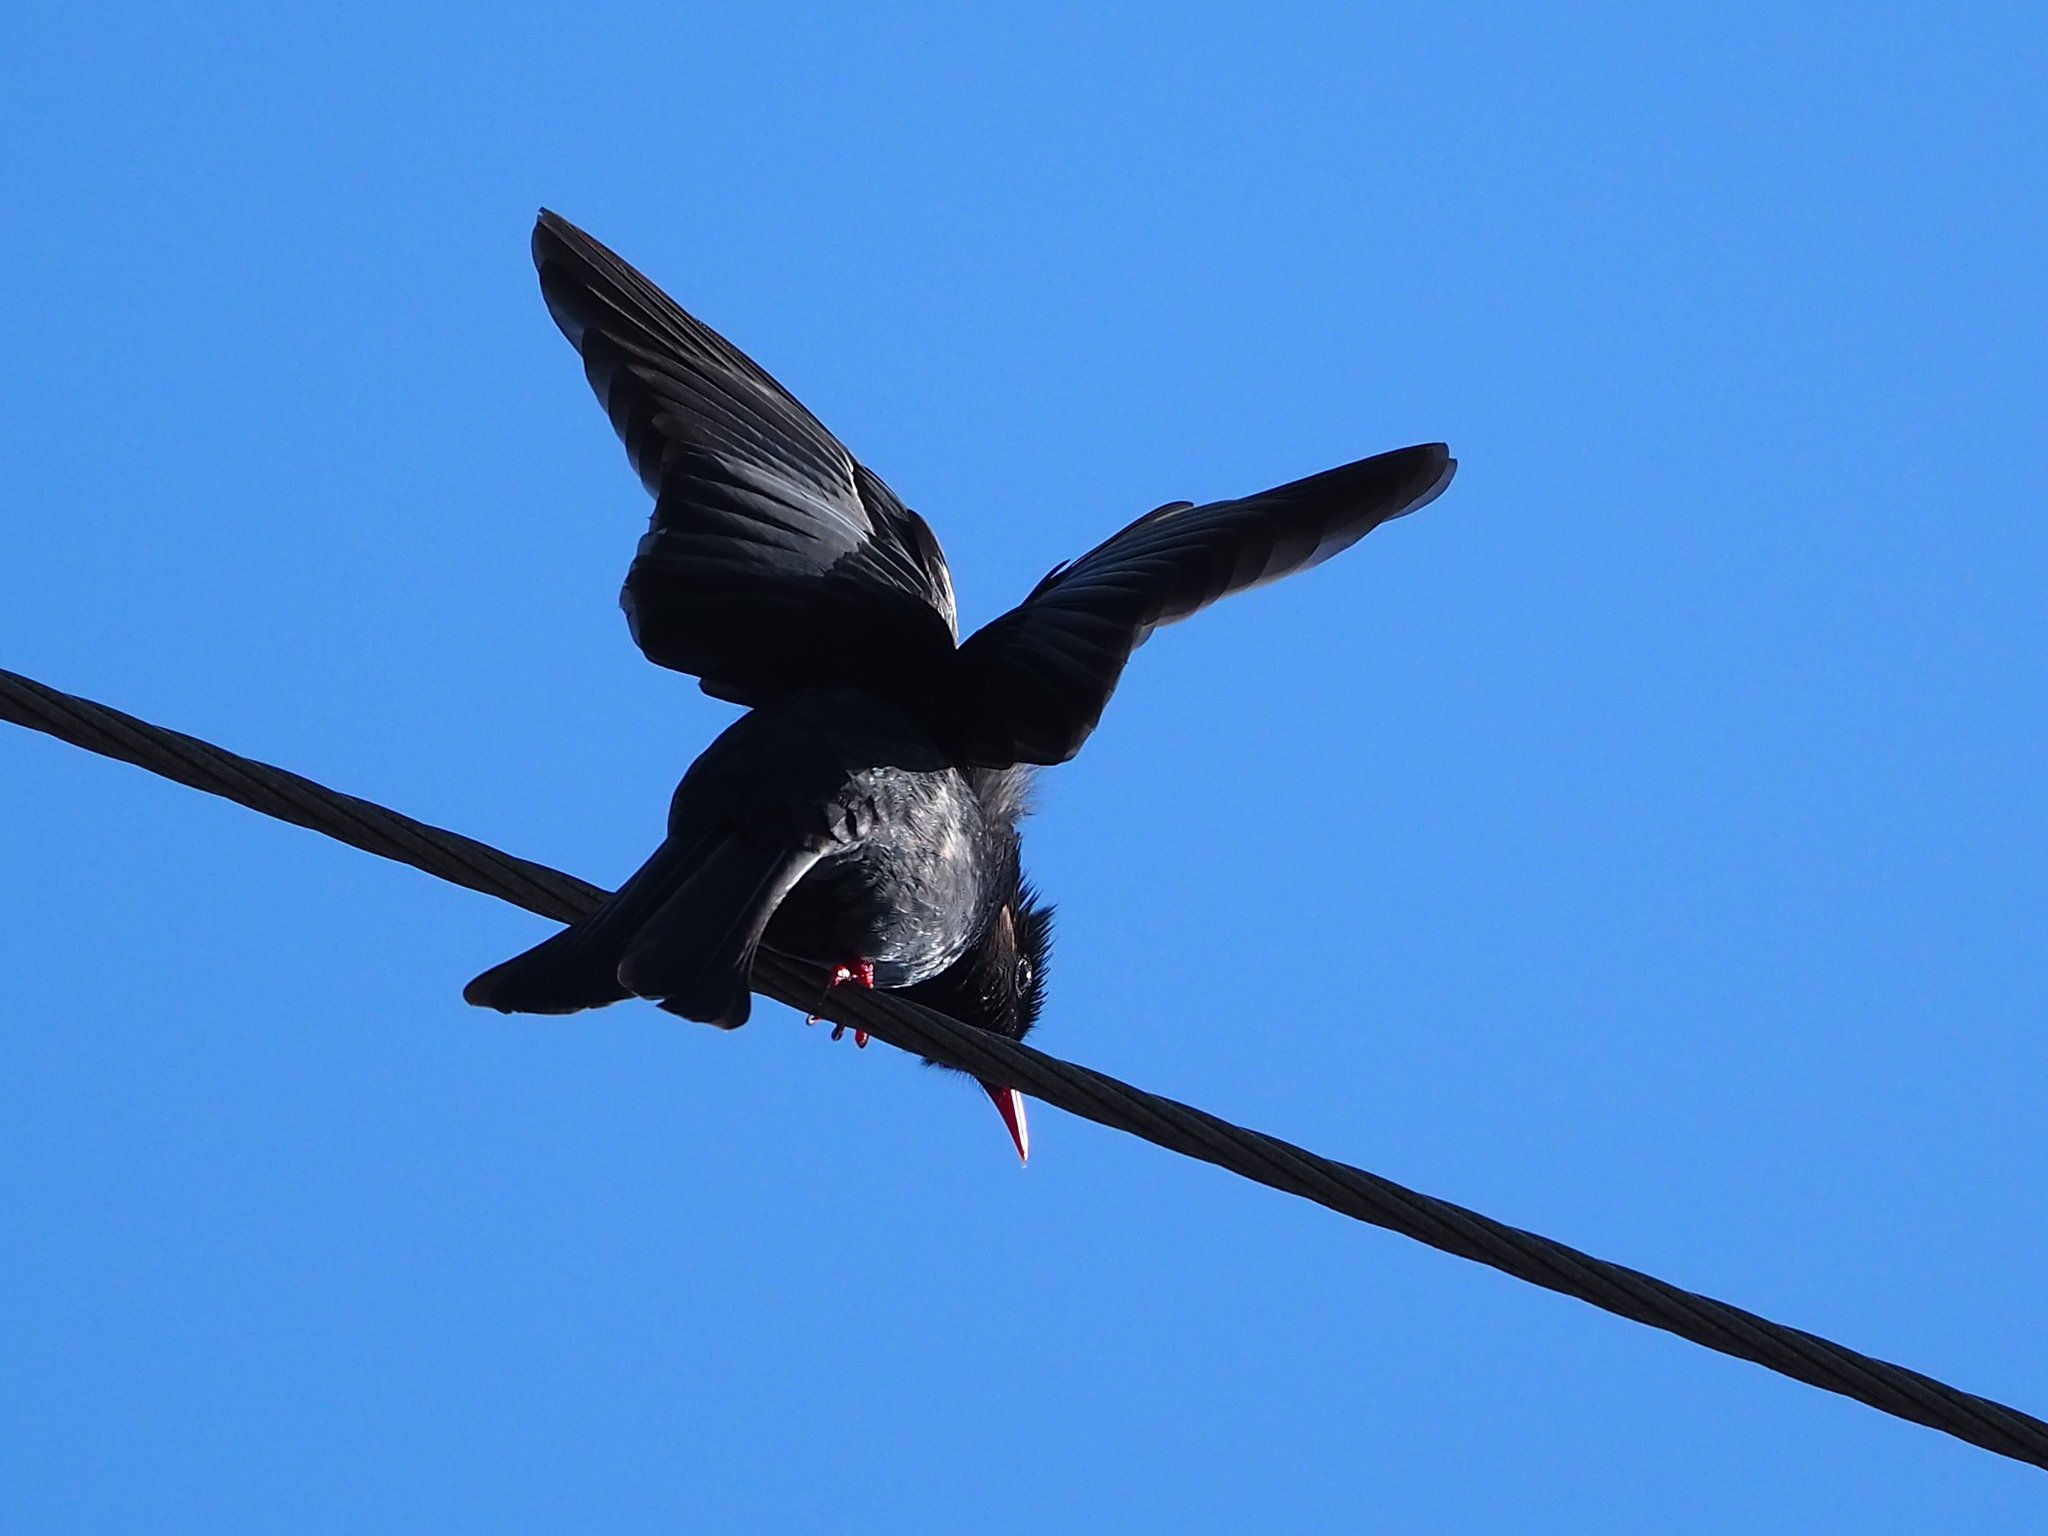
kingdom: Animalia
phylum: Chordata
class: Aves
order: Passeriformes
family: Pycnonotidae
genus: Hypsipetes
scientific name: Hypsipetes leucocephalus
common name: Black bulbul
